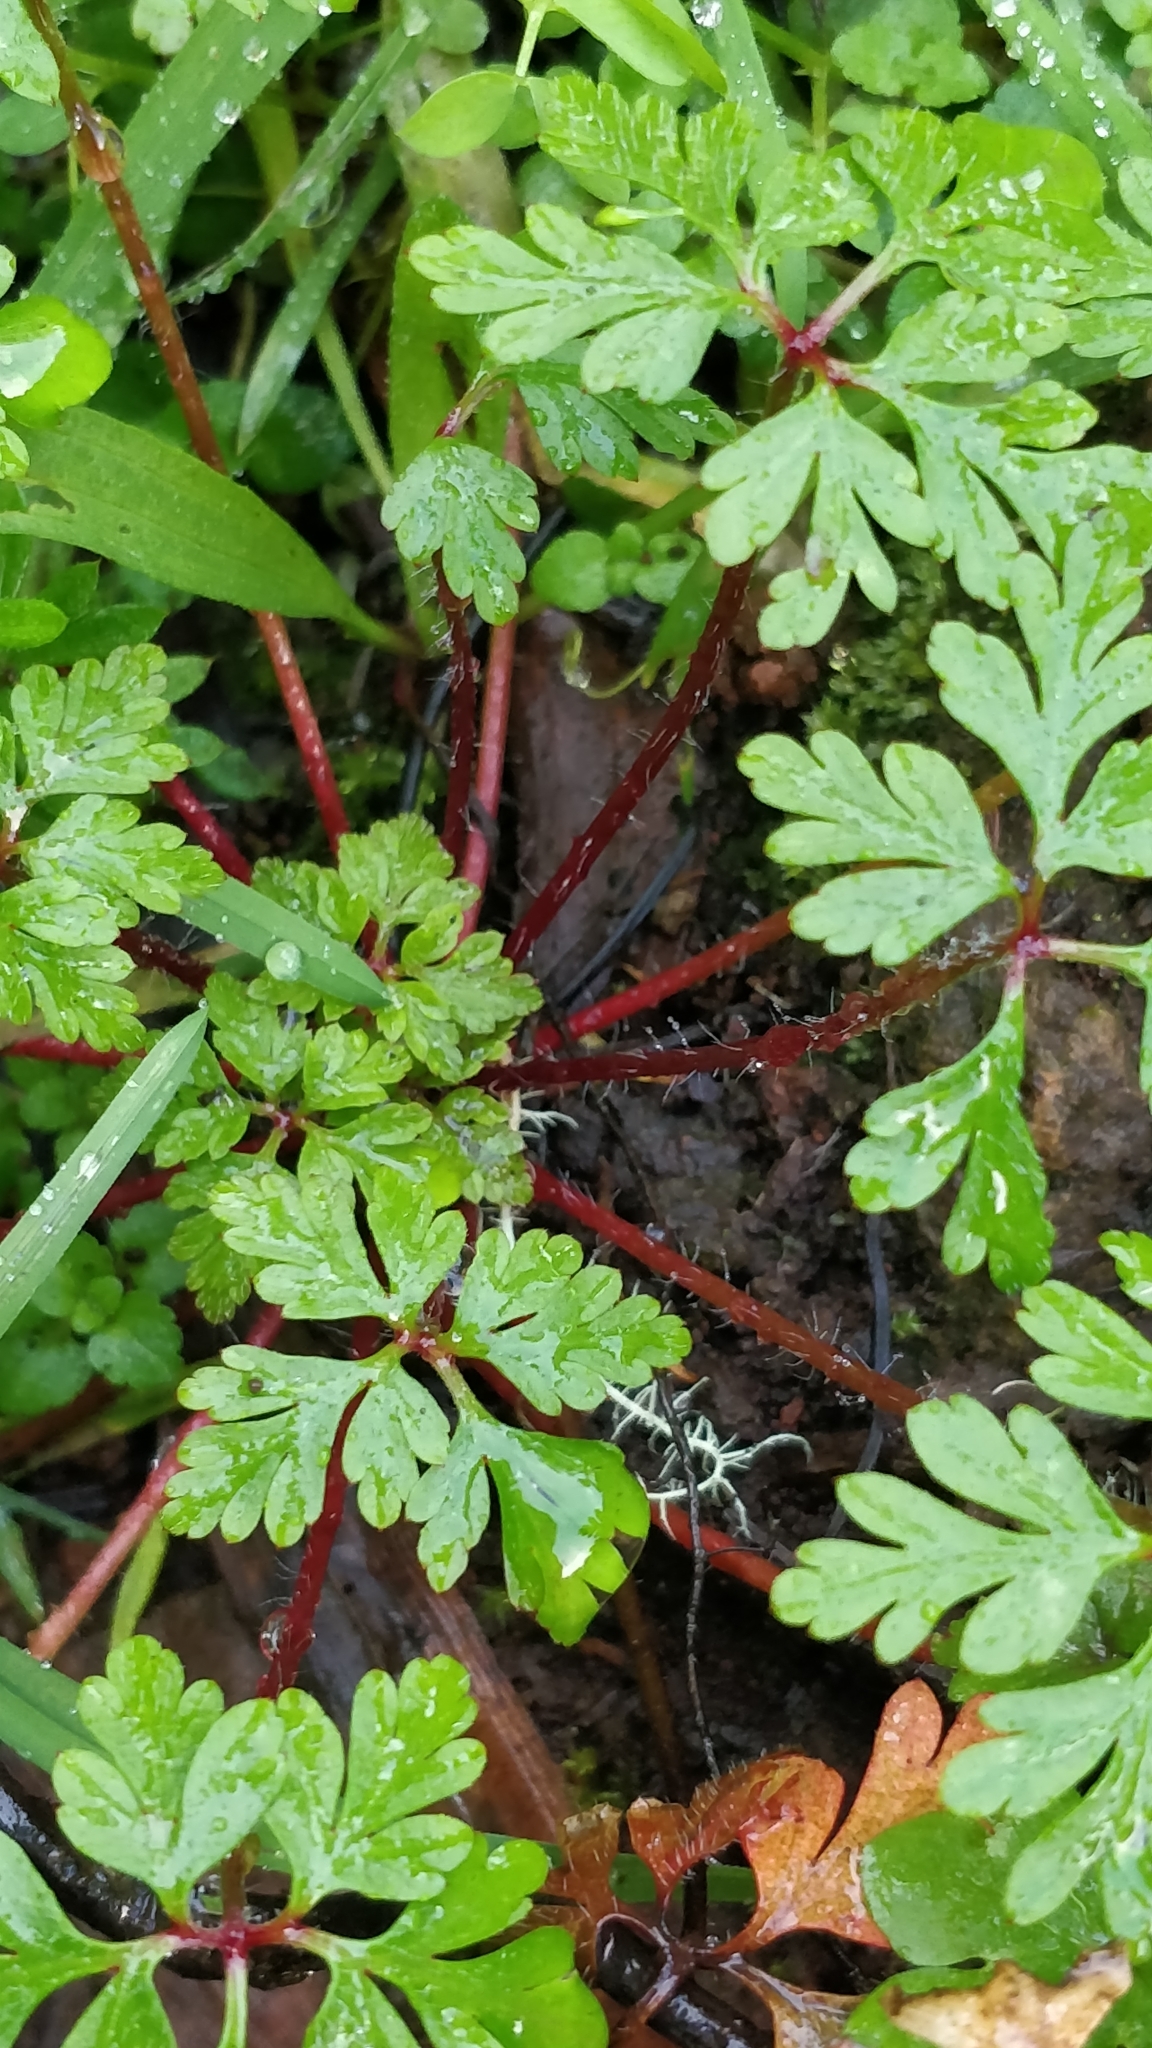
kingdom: Plantae
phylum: Tracheophyta
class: Magnoliopsida
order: Geraniales
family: Geraniaceae
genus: Geranium
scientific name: Geranium yeoi
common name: Greater herb robert
